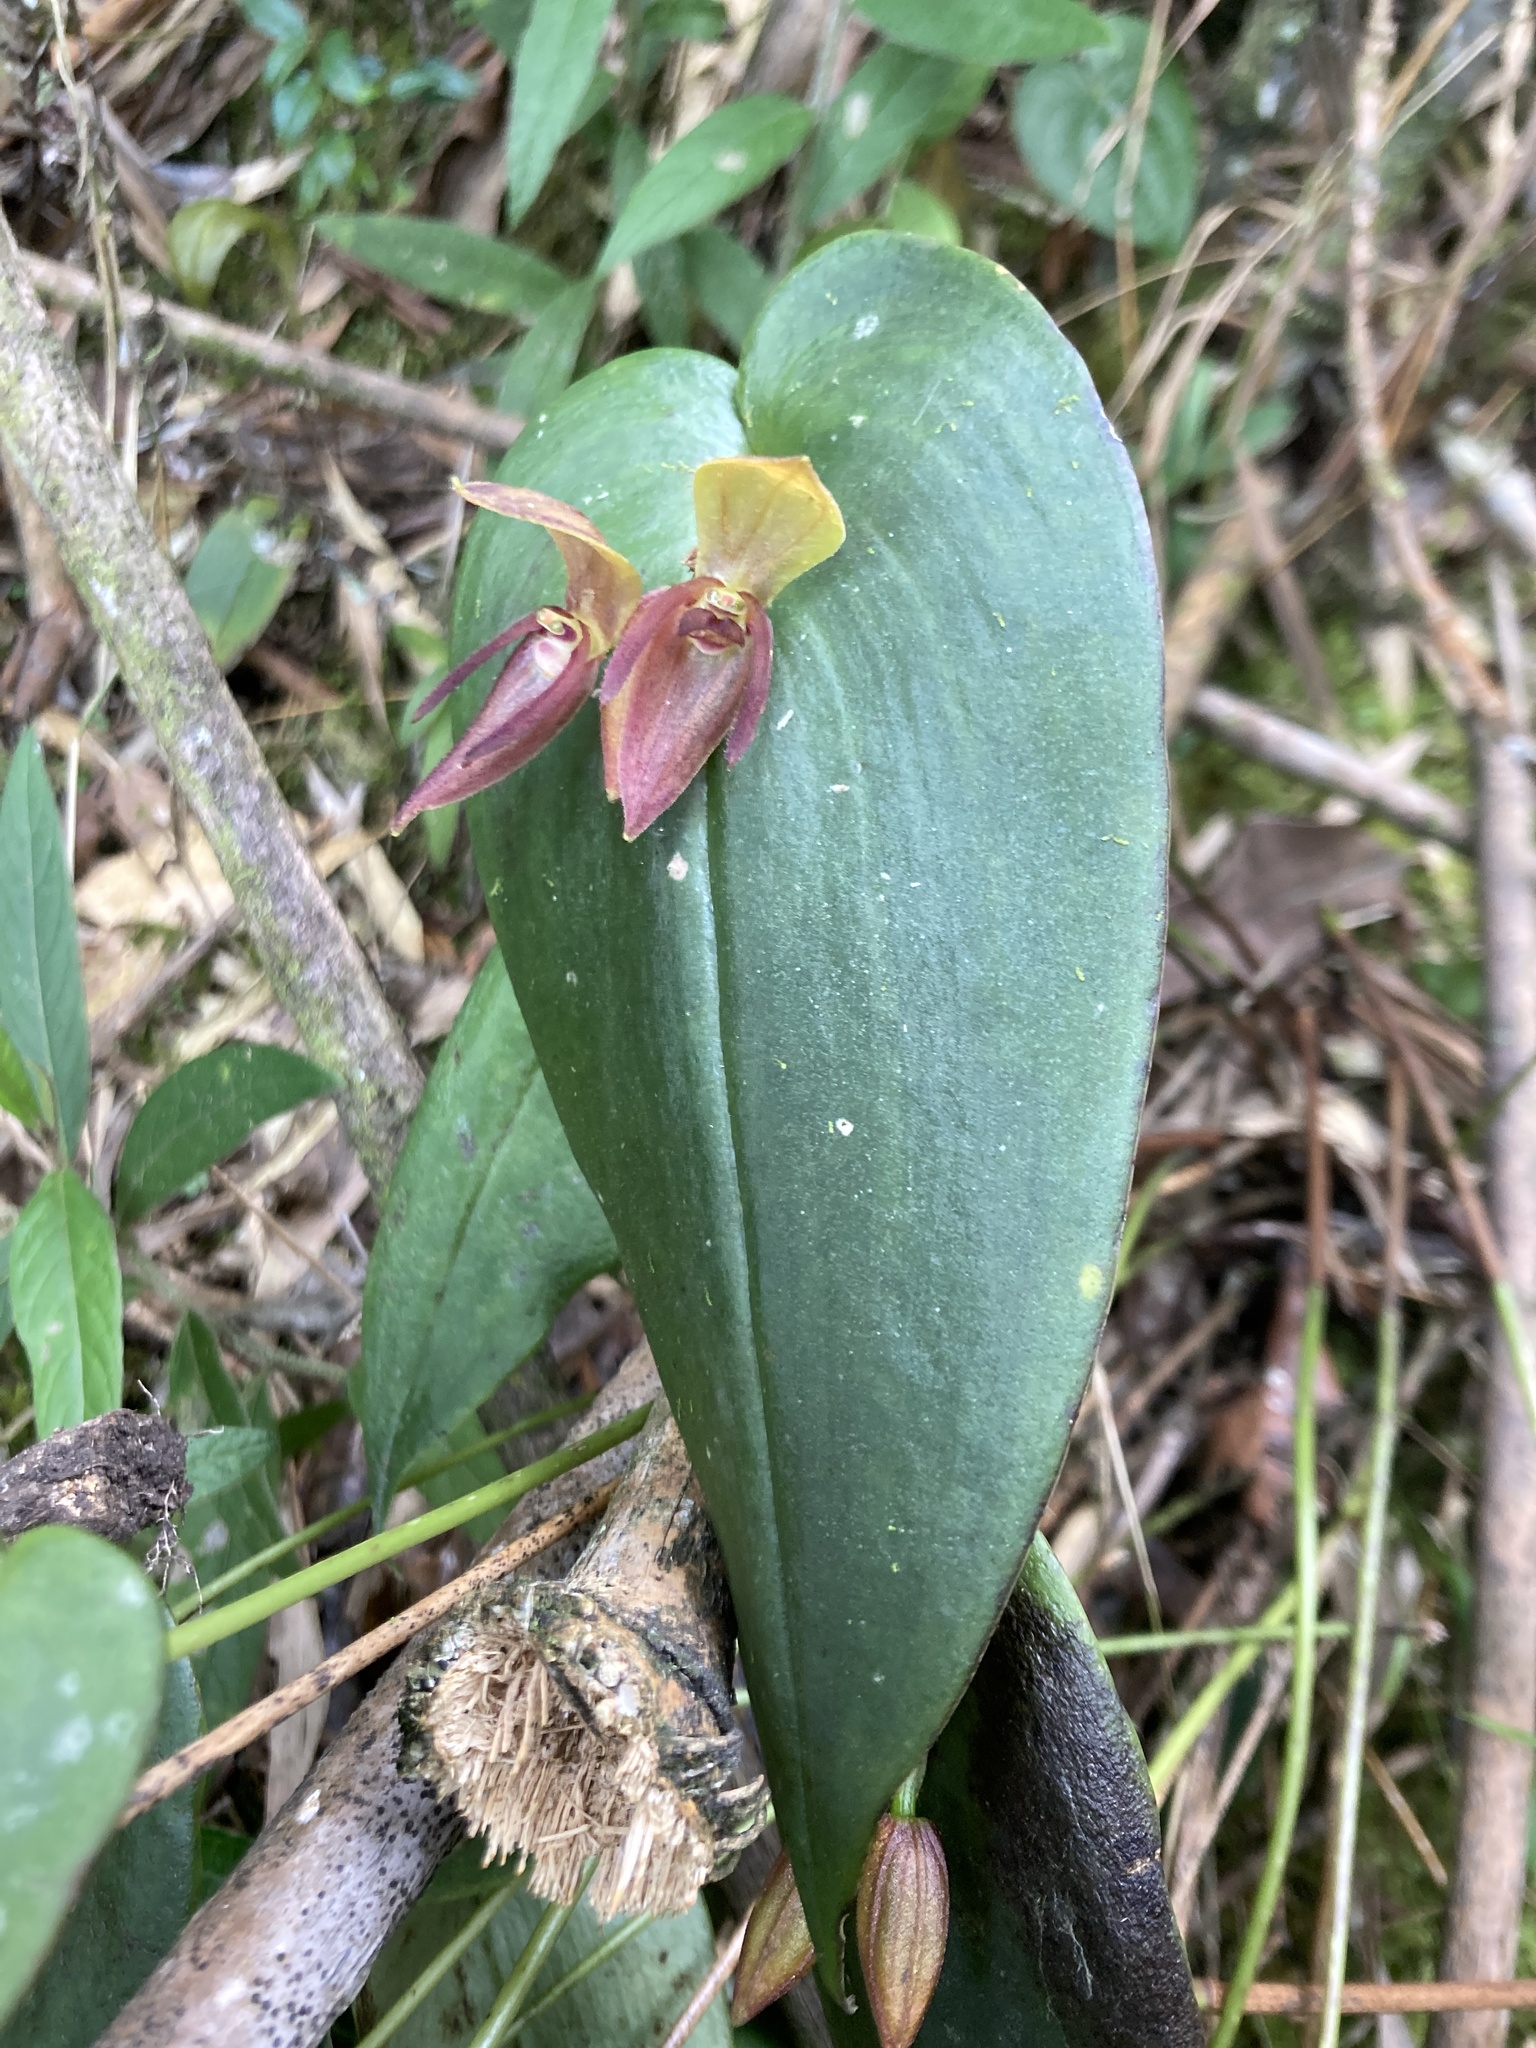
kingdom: Plantae
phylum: Tracheophyta
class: Liliopsida
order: Asparagales
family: Orchidaceae
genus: Pleurothallis
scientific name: Pleurothallis adonis
